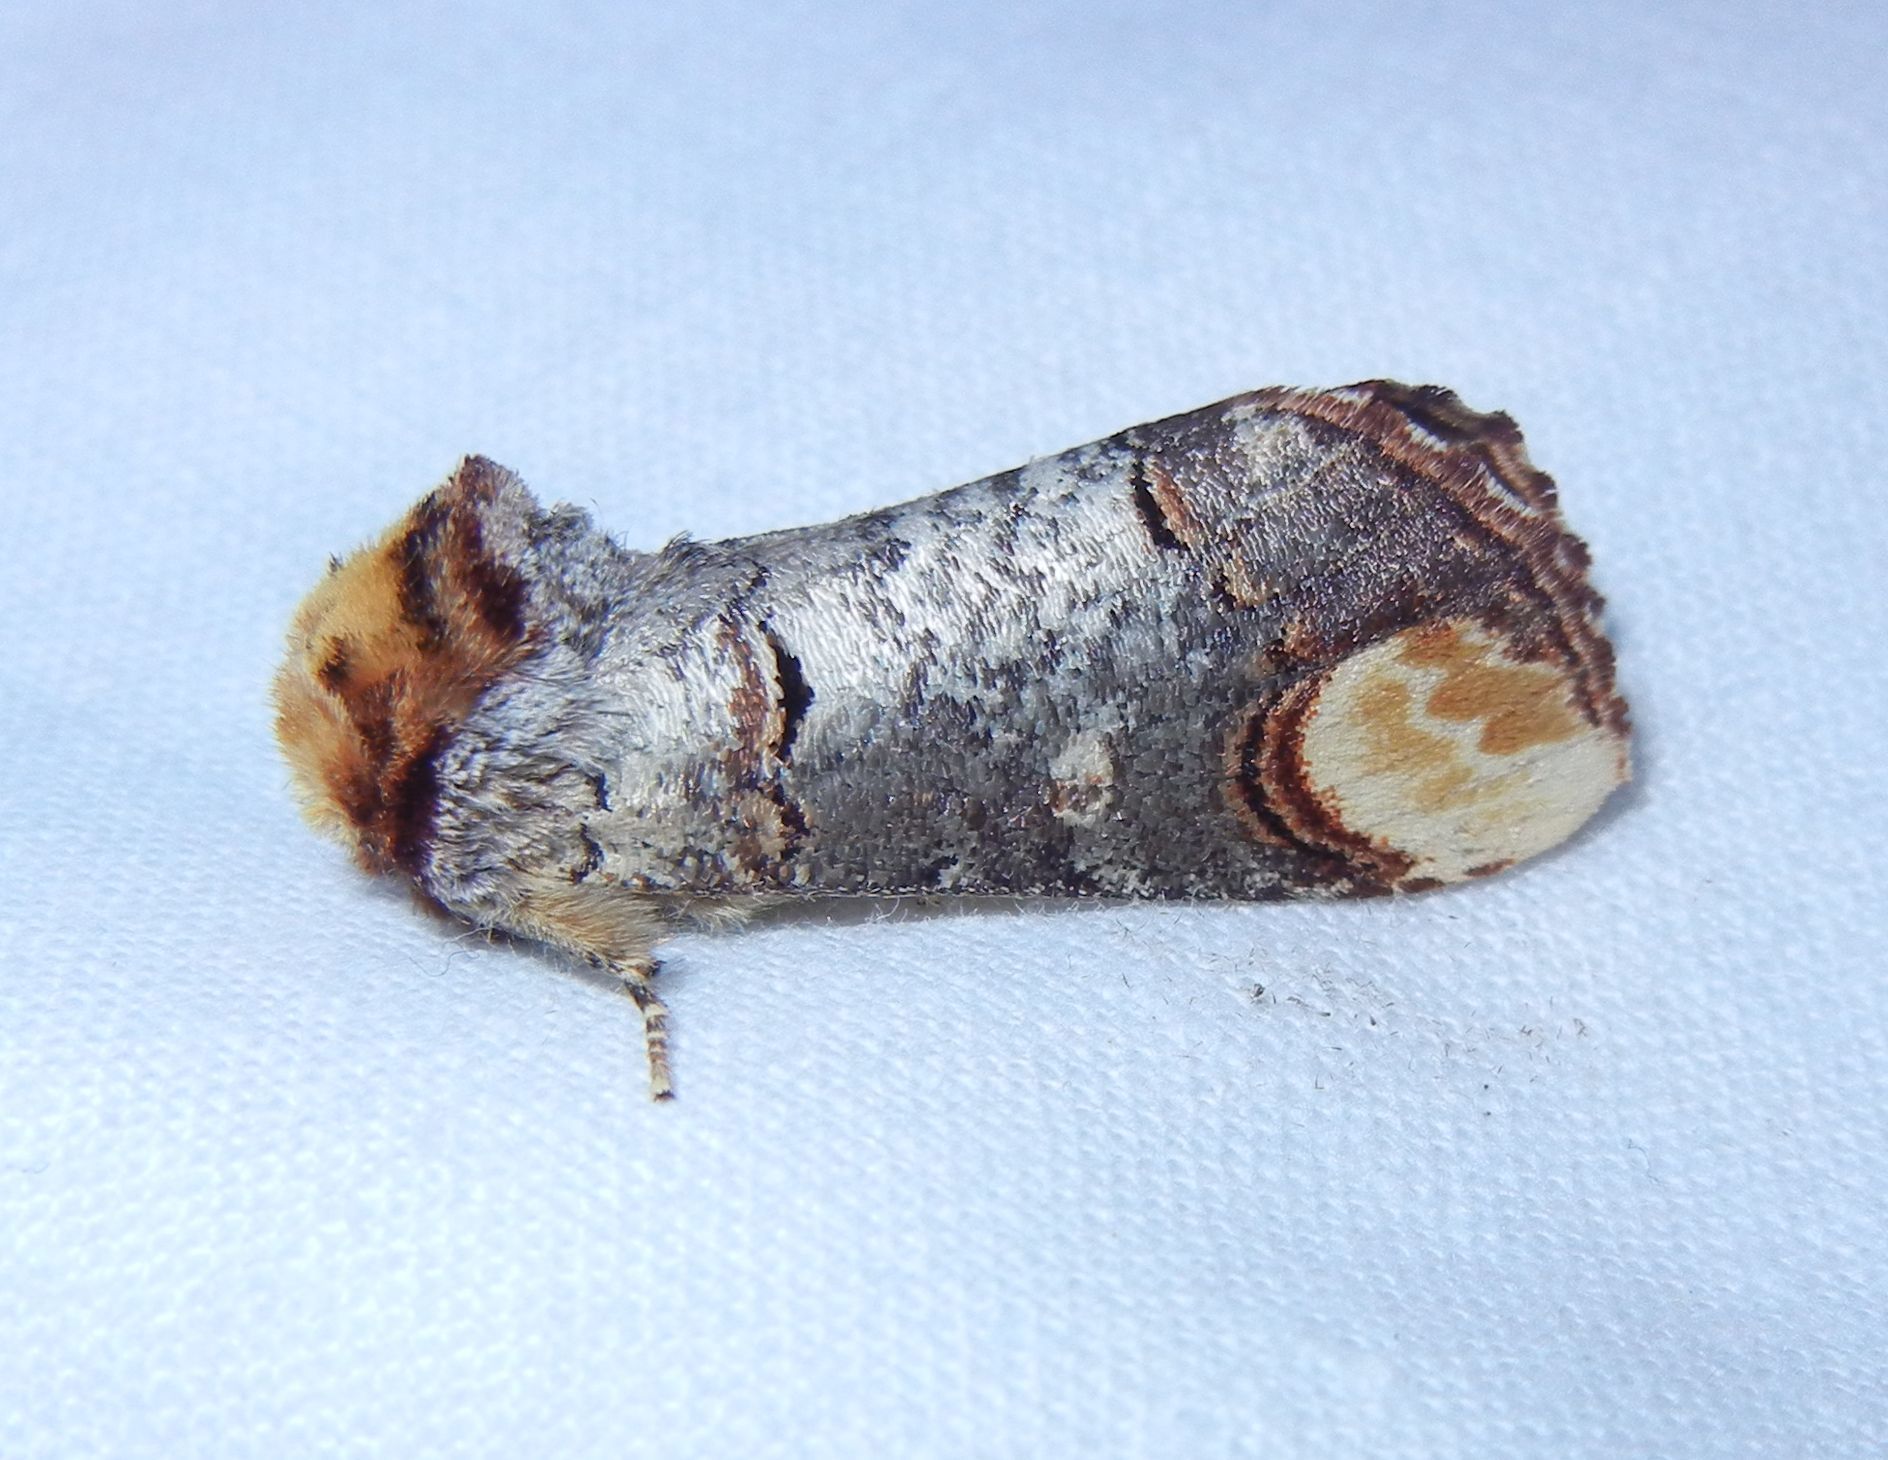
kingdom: Animalia
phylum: Arthropoda
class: Insecta
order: Lepidoptera
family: Notodontidae
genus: Phalera
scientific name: Phalera bucephala
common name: Buff-tip
